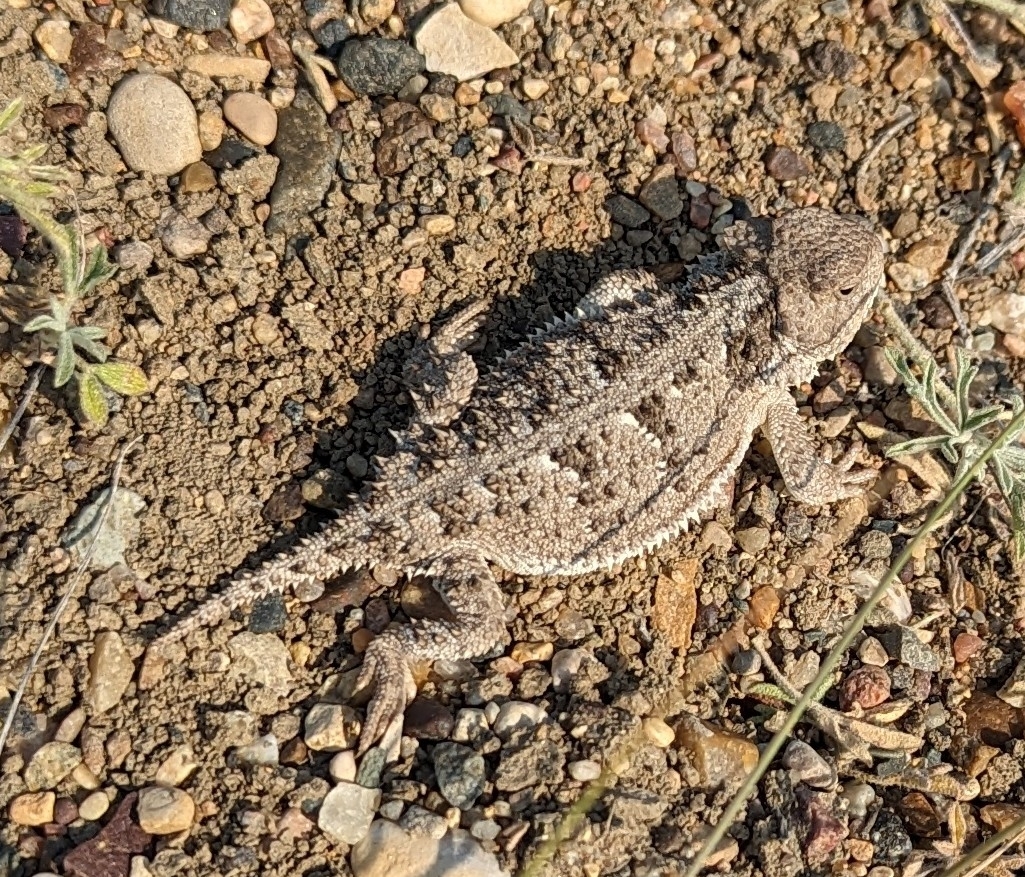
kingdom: Animalia
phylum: Chordata
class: Squamata
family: Phrynosomatidae
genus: Phrynosoma
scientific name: Phrynosoma hernandesi
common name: Greater short-horned lizard
